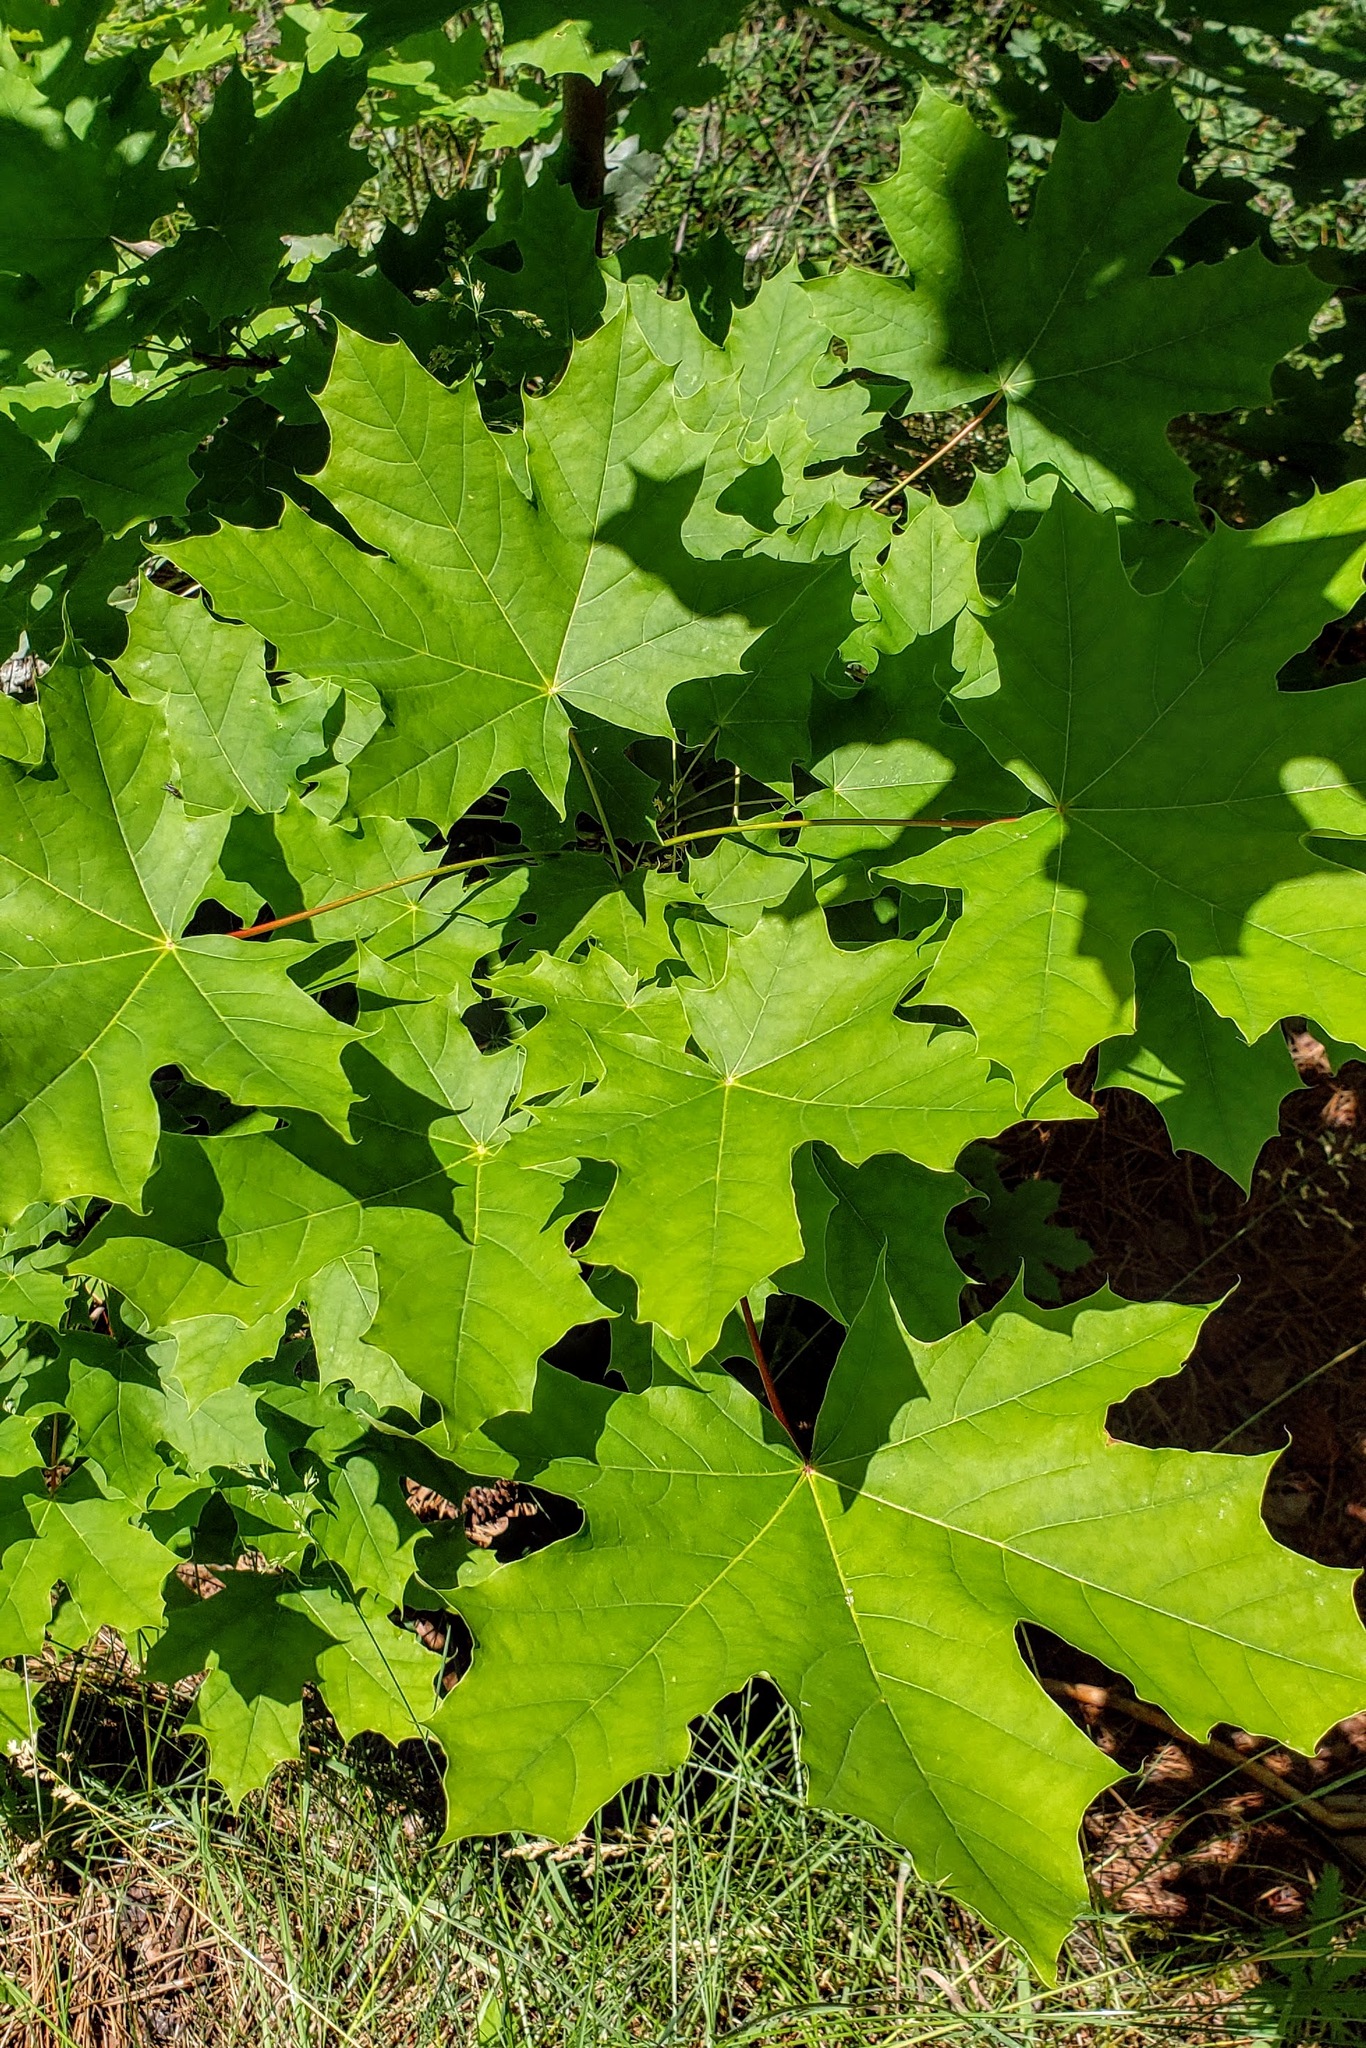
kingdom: Plantae
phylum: Tracheophyta
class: Magnoliopsida
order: Sapindales
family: Sapindaceae
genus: Acer
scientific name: Acer platanoides
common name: Norway maple
